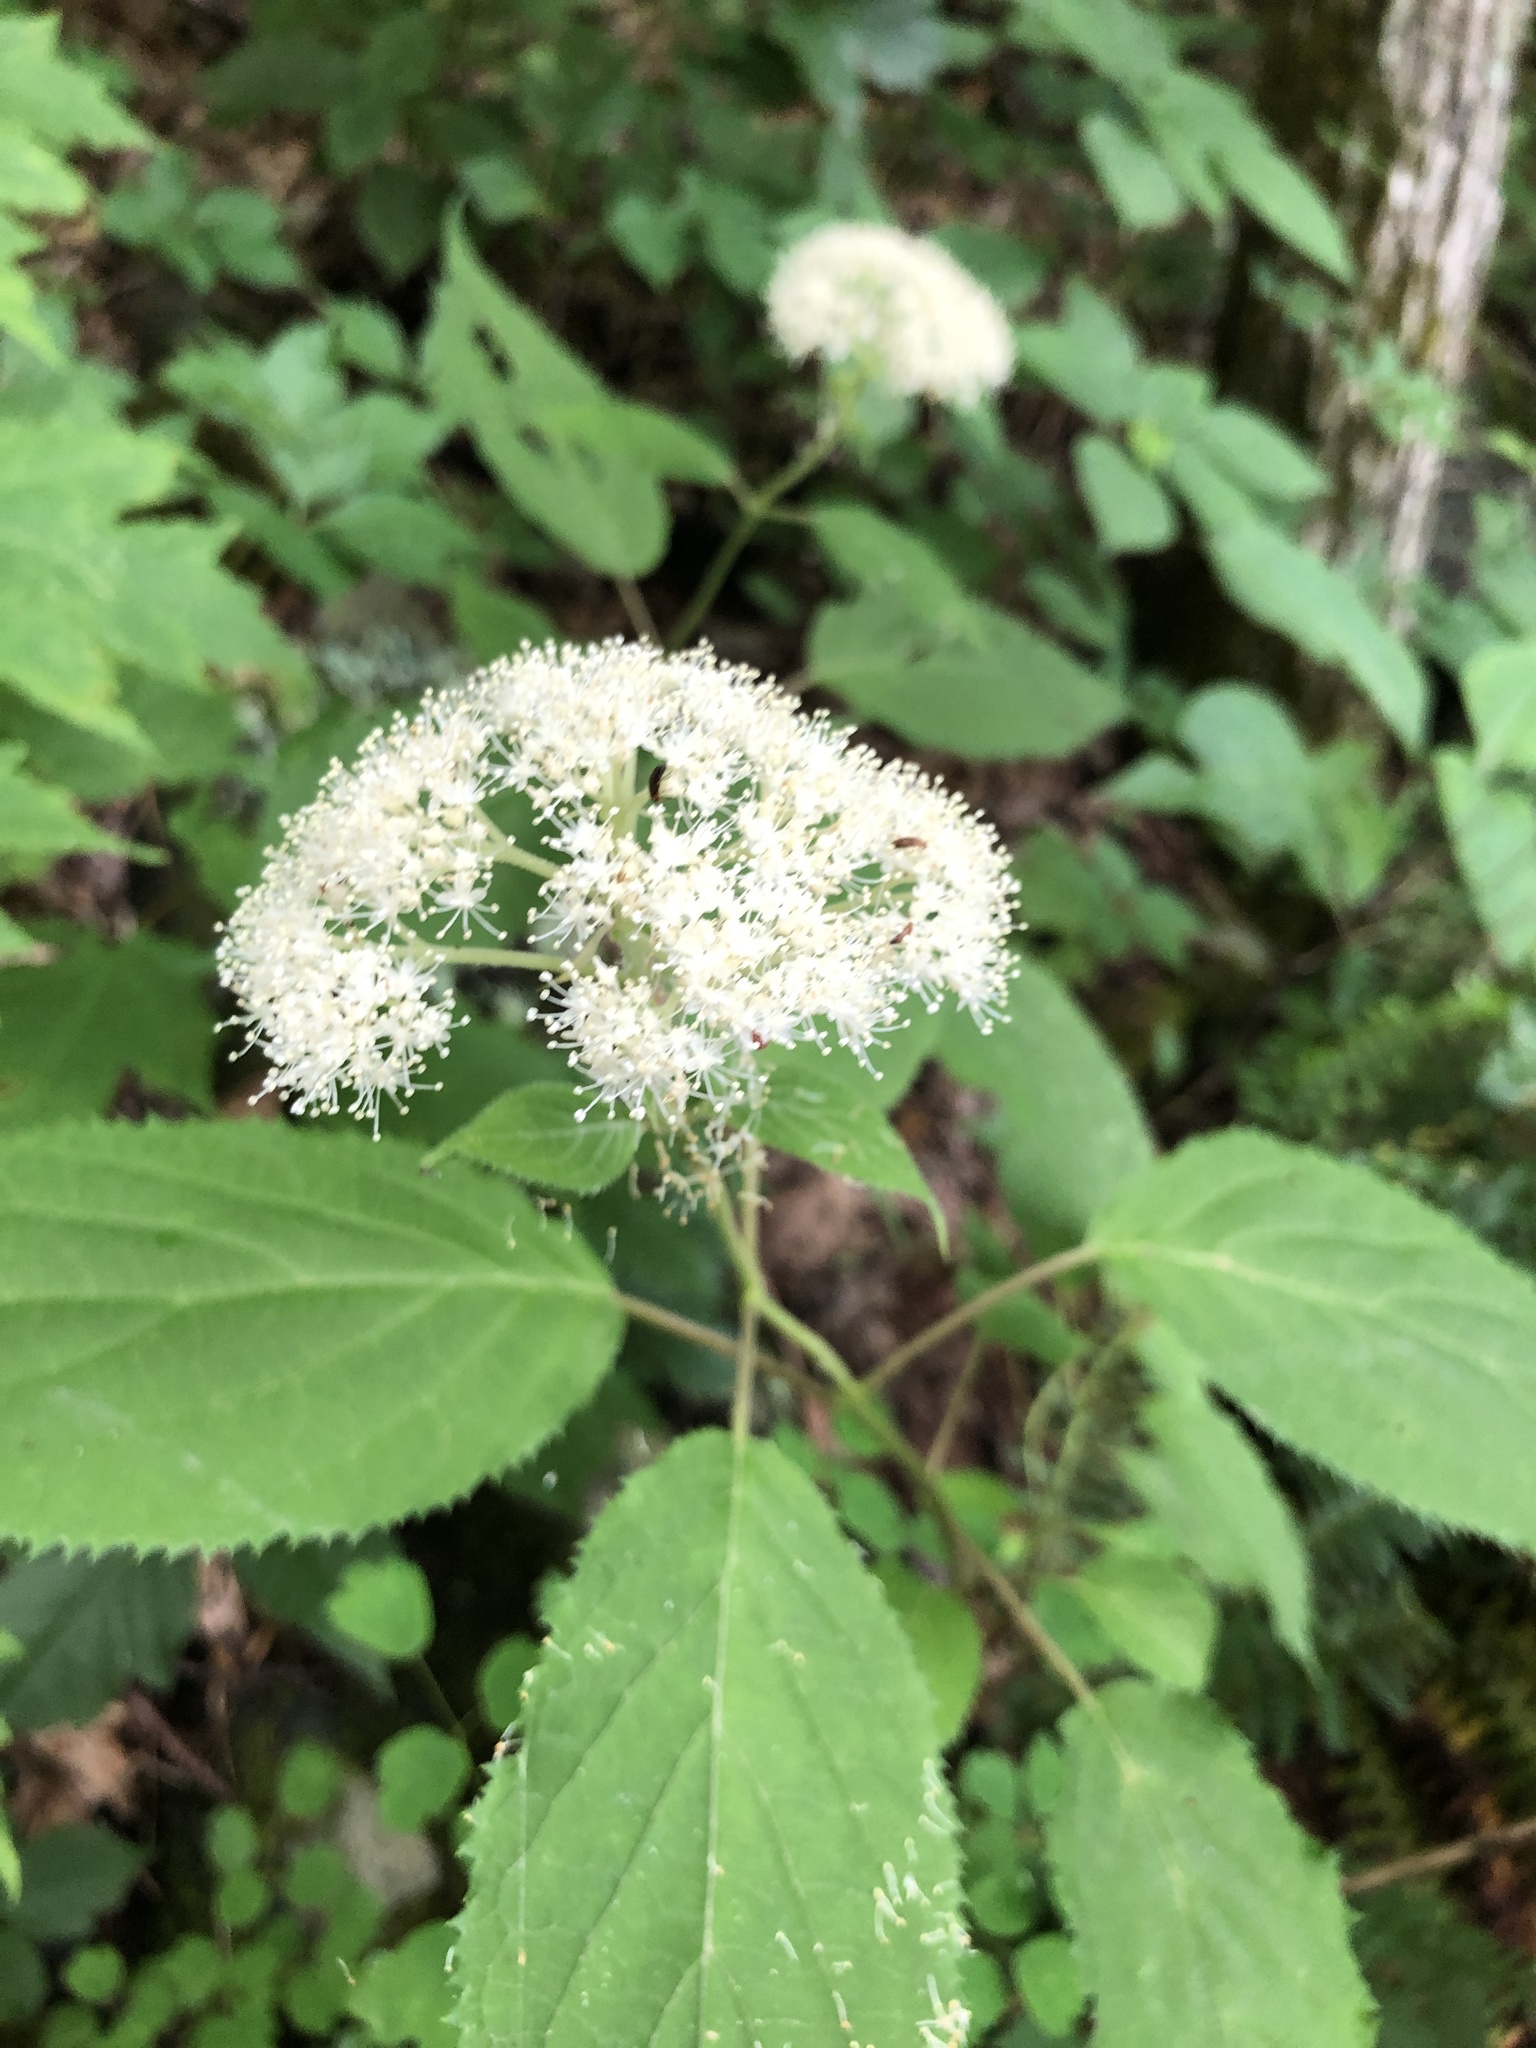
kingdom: Plantae
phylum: Tracheophyta
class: Magnoliopsida
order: Cornales
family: Hydrangeaceae
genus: Hydrangea
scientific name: Hydrangea arborescens
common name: Sevenbark
